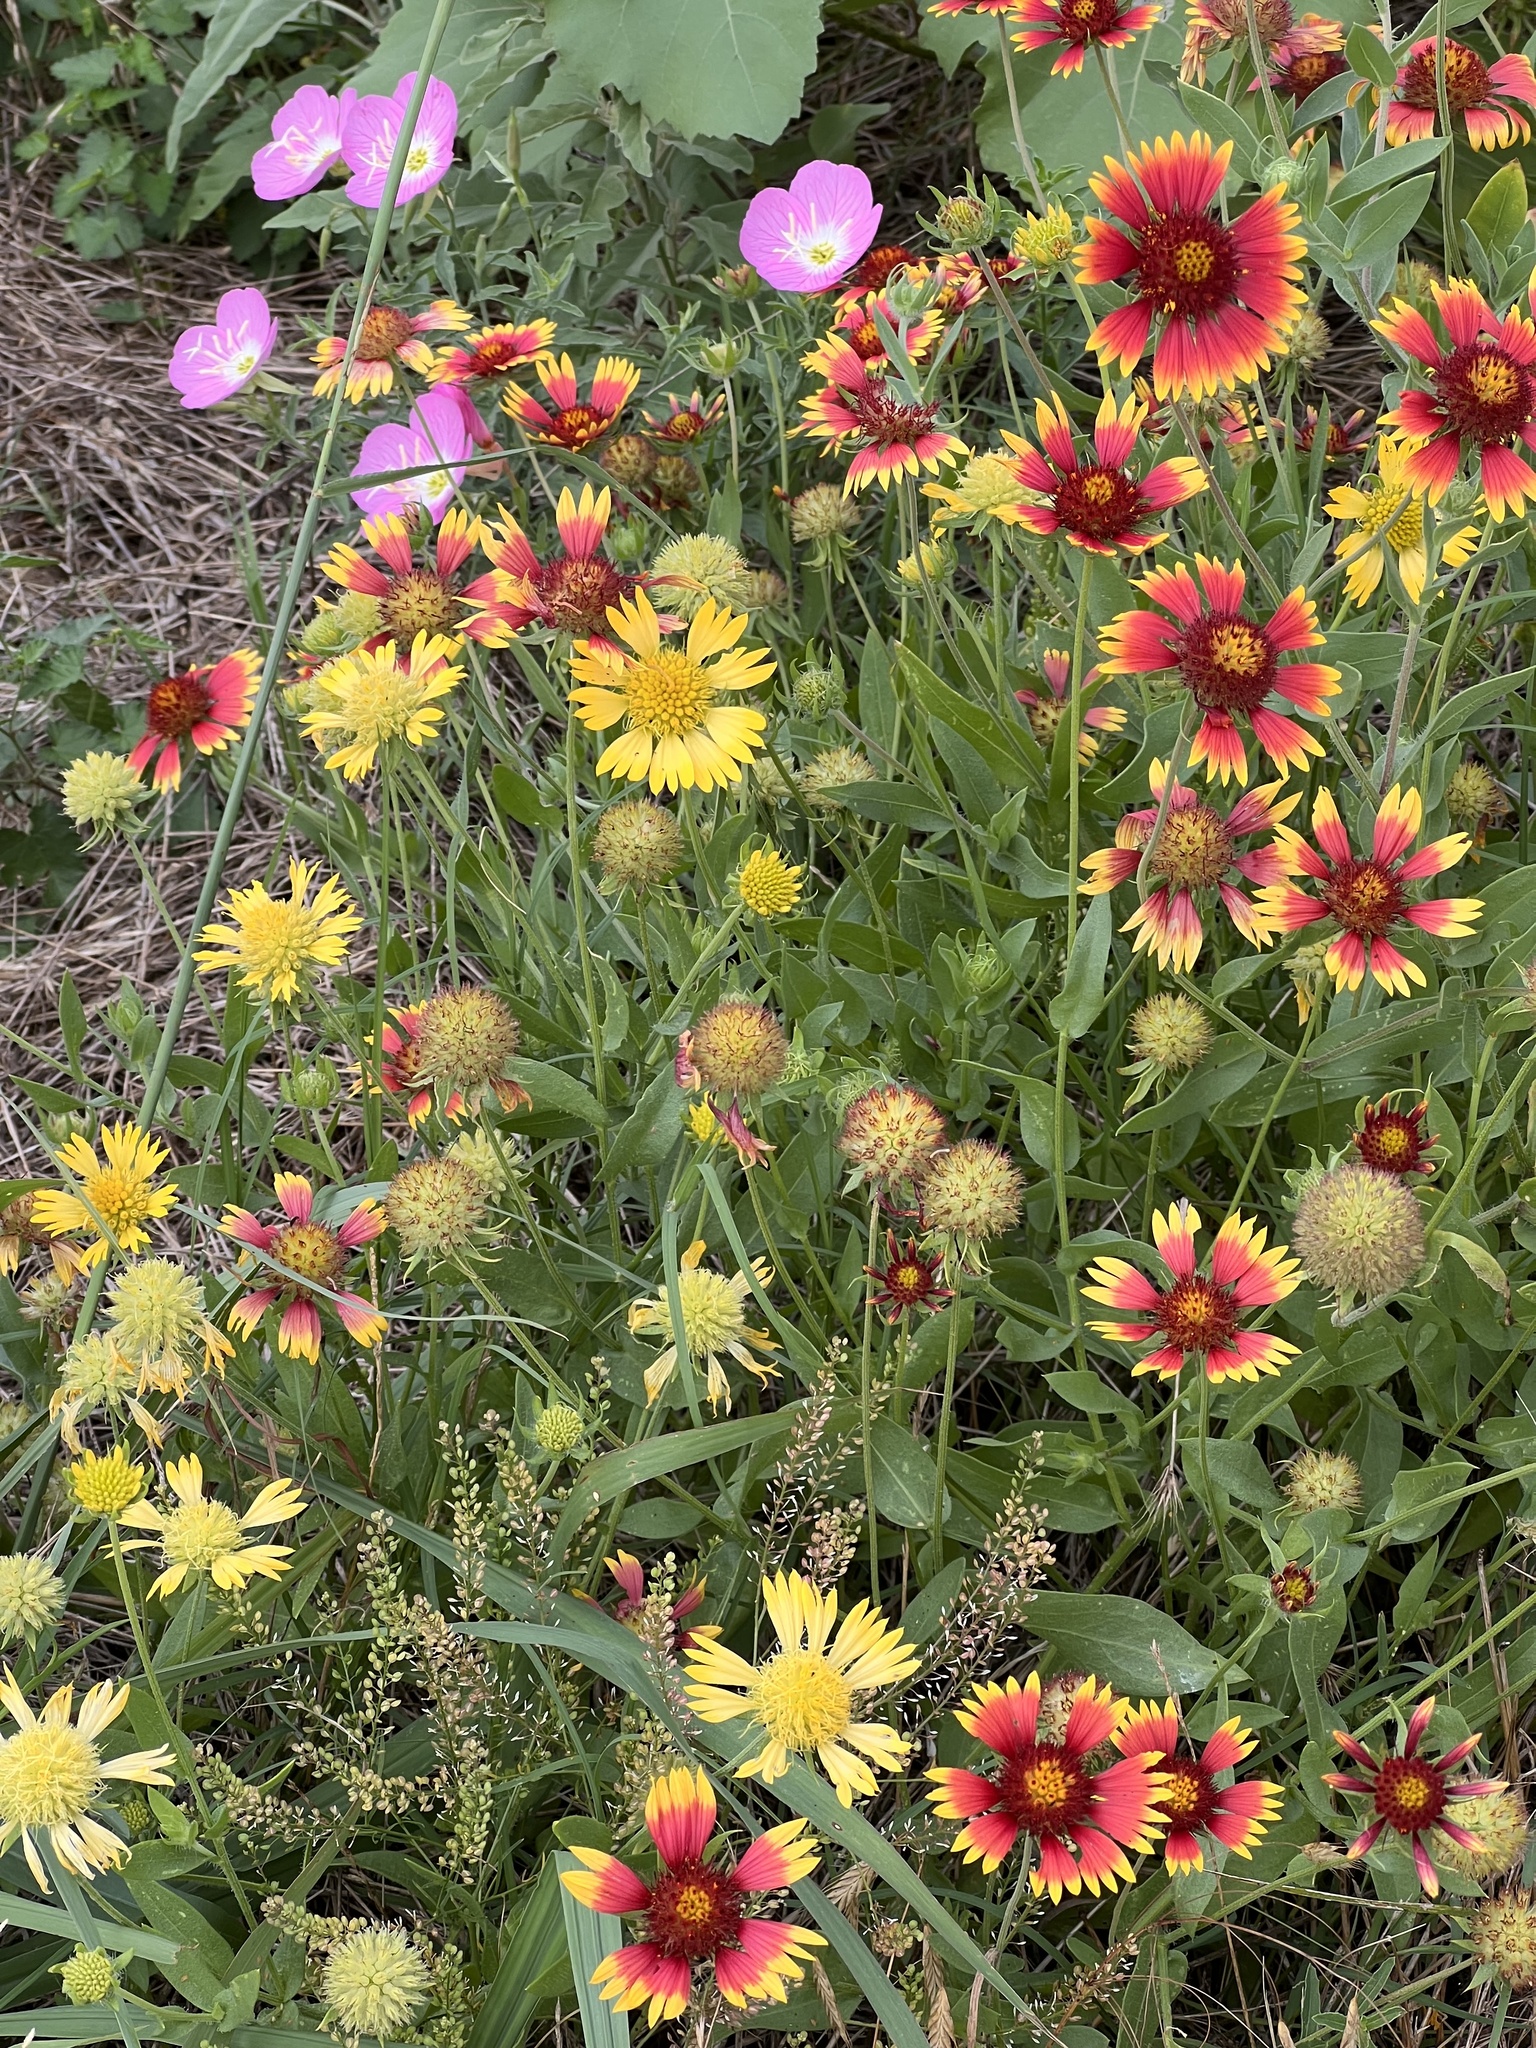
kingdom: Plantae
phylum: Tracheophyta
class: Magnoliopsida
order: Asterales
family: Asteraceae
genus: Gaillardia
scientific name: Gaillardia pulchella
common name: Firewheel
